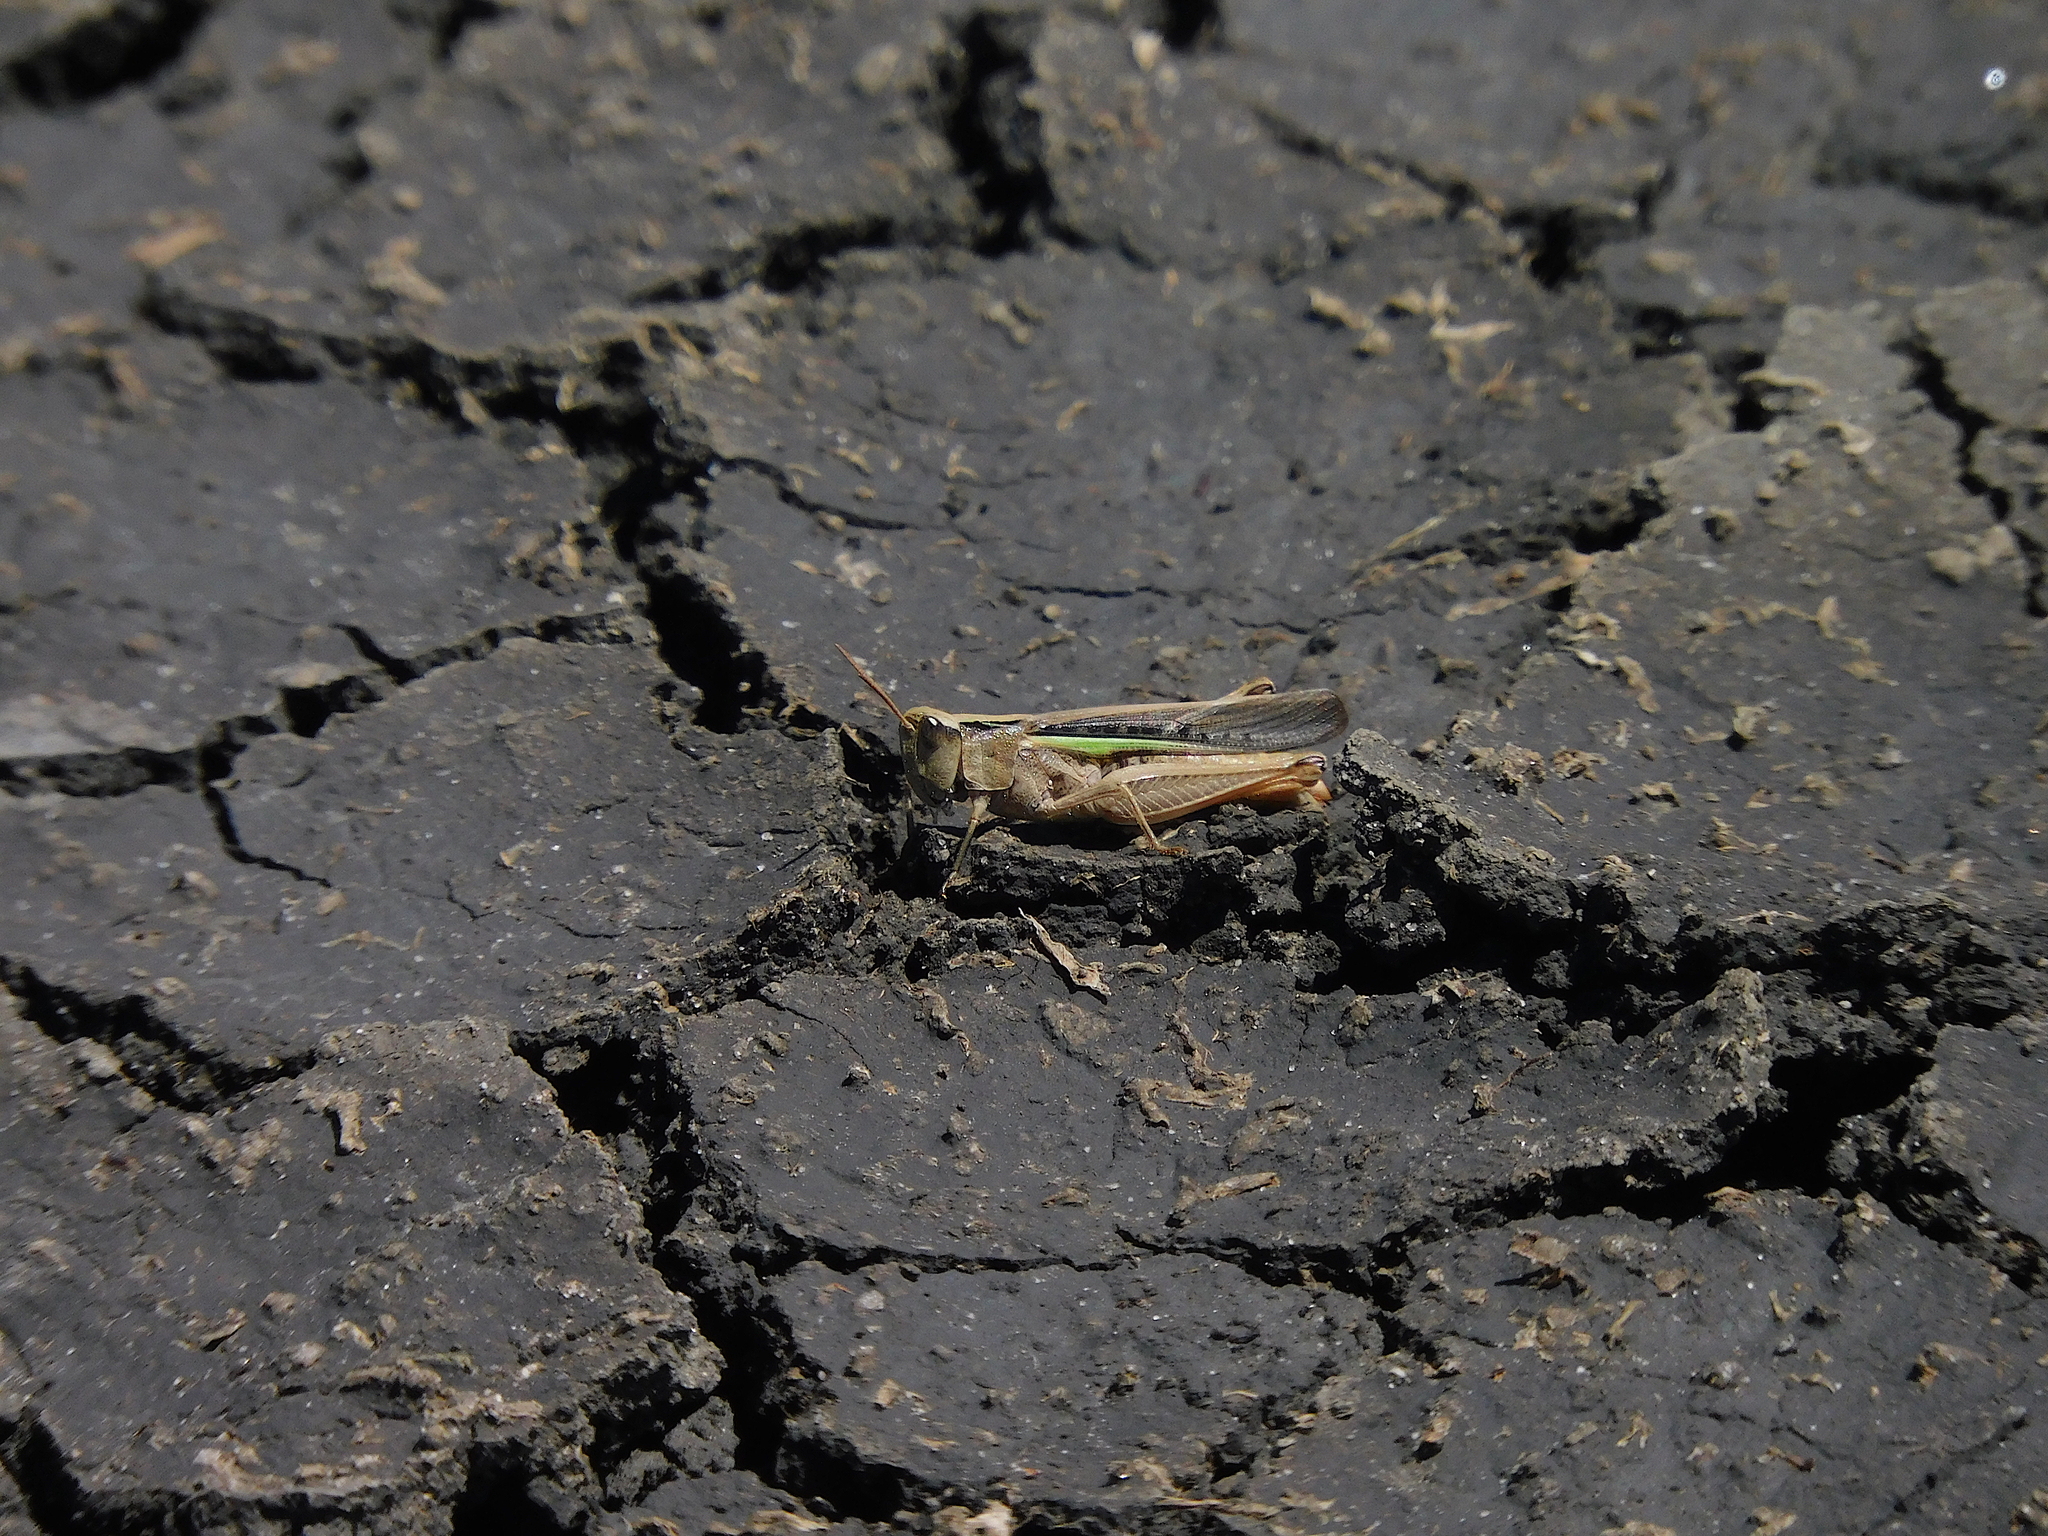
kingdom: Animalia
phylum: Arthropoda
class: Insecta
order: Orthoptera
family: Acrididae
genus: Schizobothrus
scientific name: Schizobothrus flavovittatus
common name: Disappearing grasshopper
